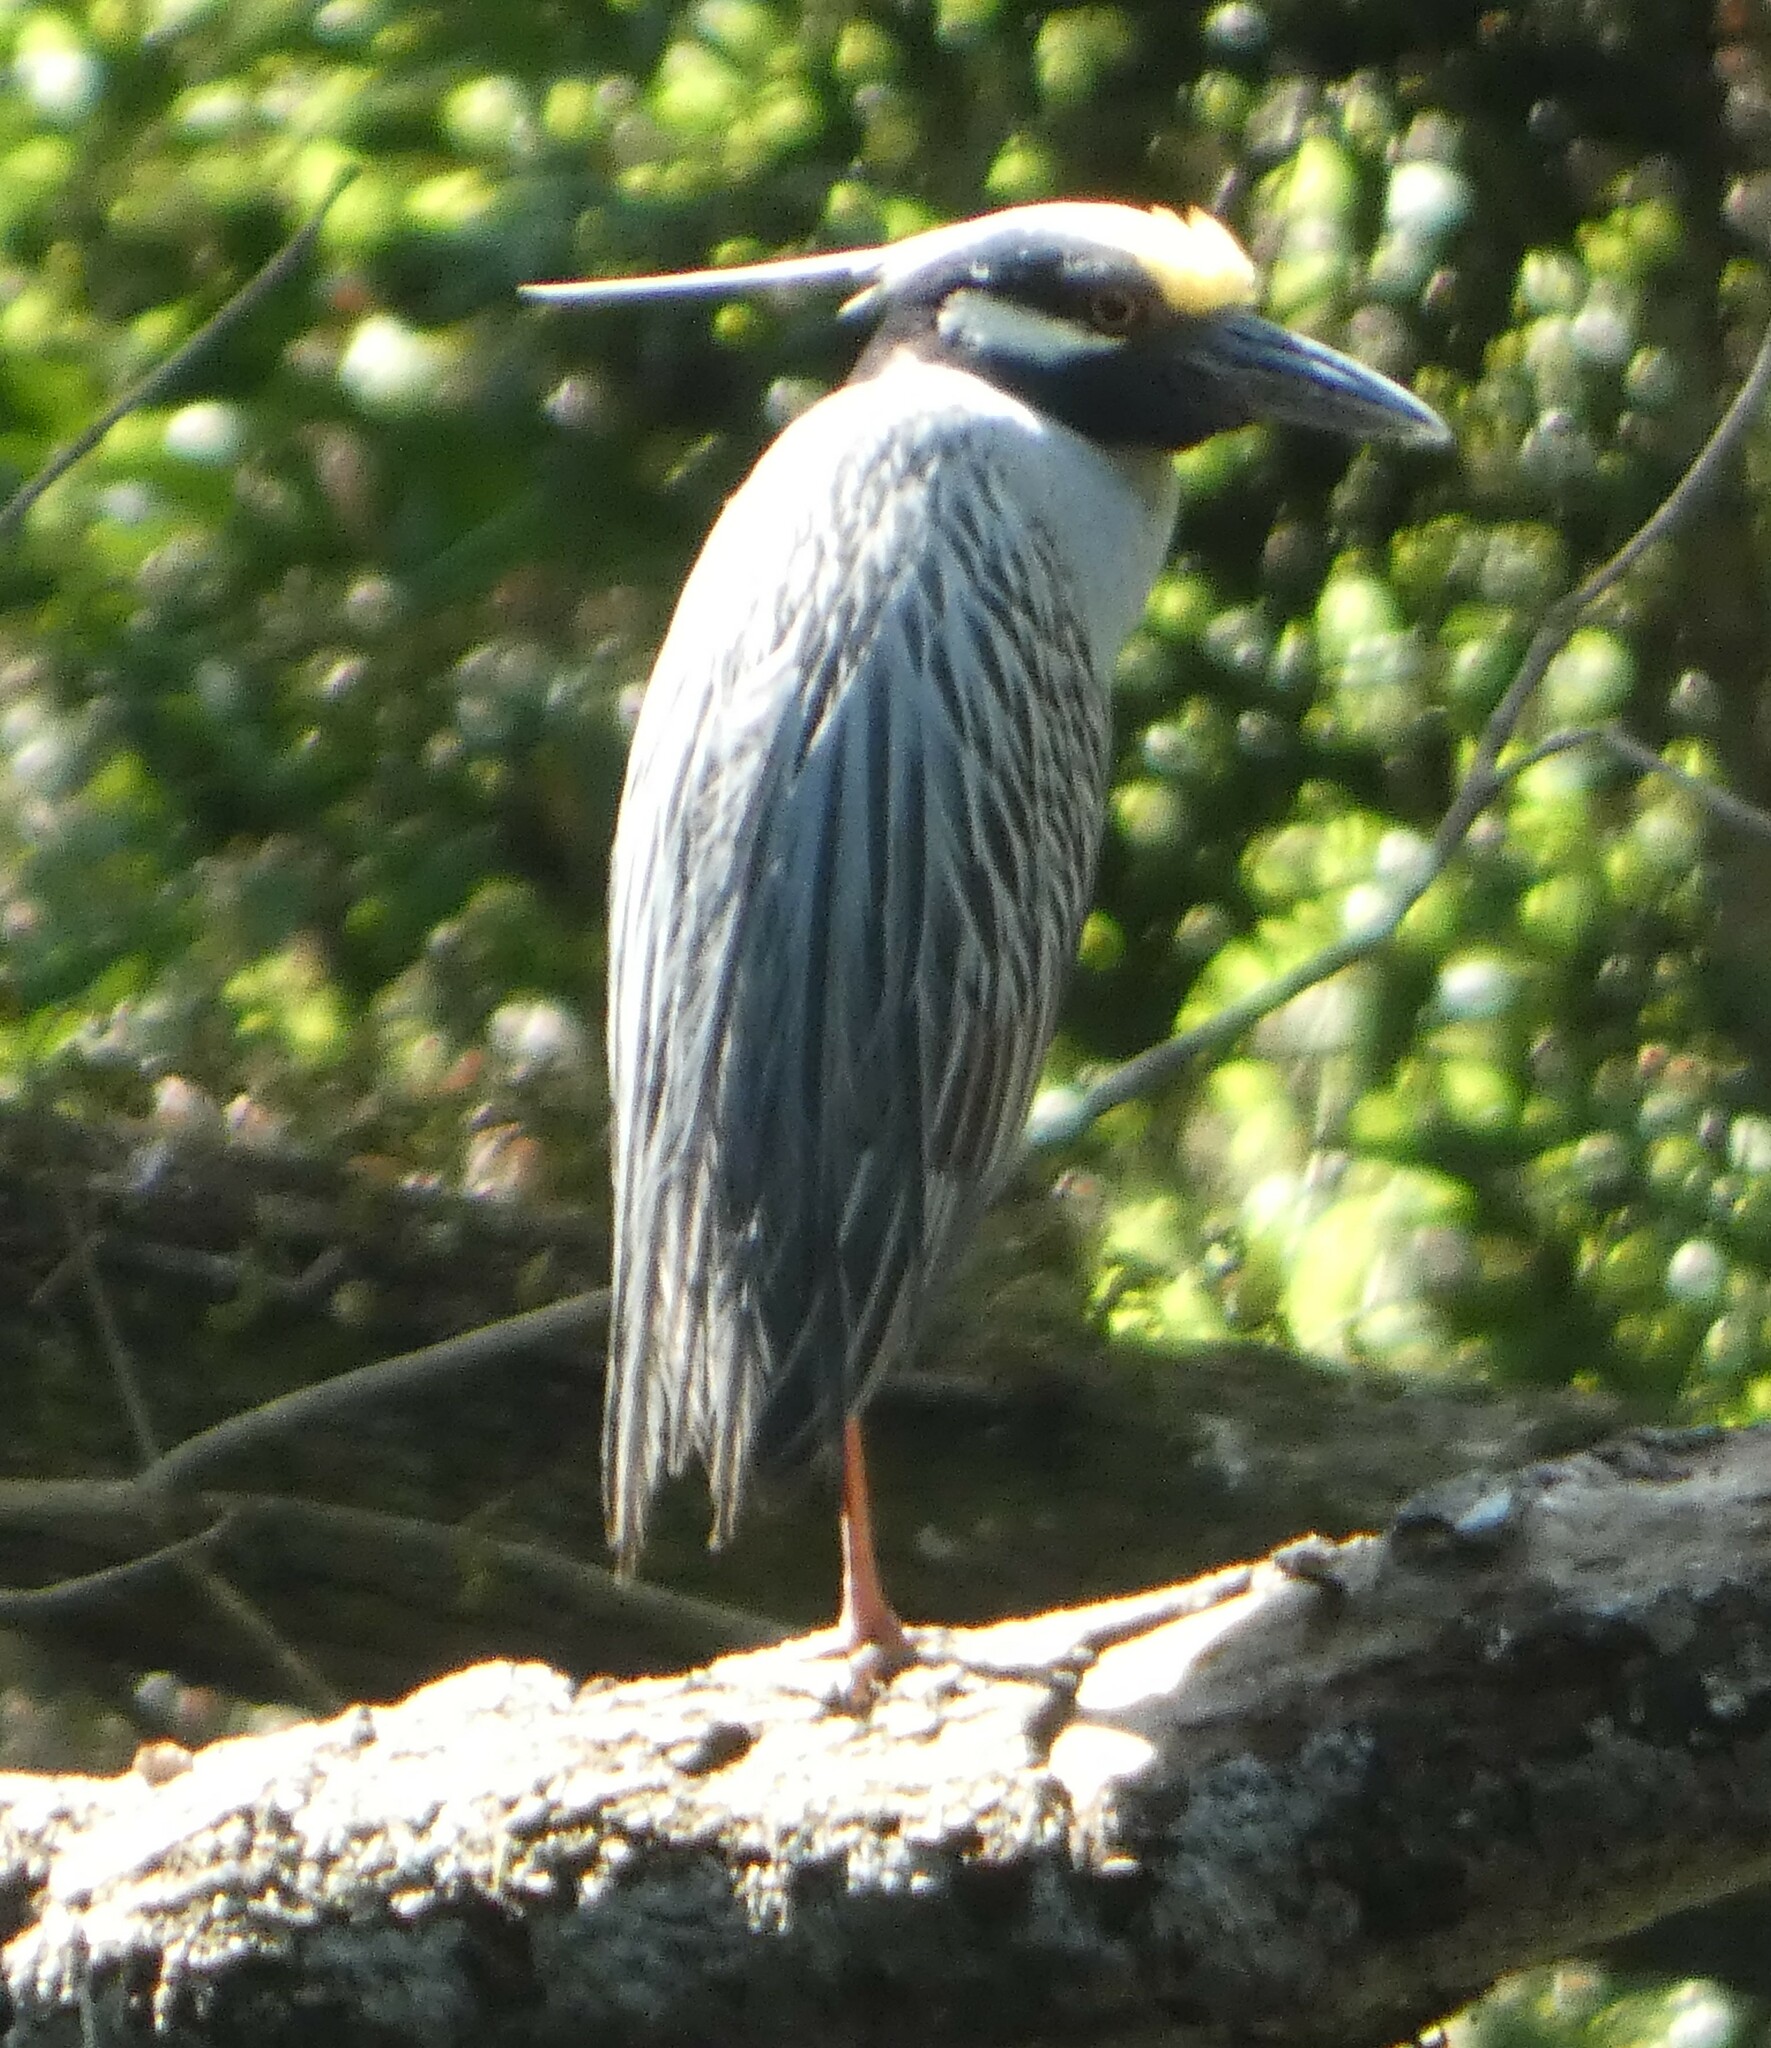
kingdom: Animalia
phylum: Chordata
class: Aves
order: Pelecaniformes
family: Ardeidae
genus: Nyctanassa
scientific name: Nyctanassa violacea
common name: Yellow-crowned night heron
